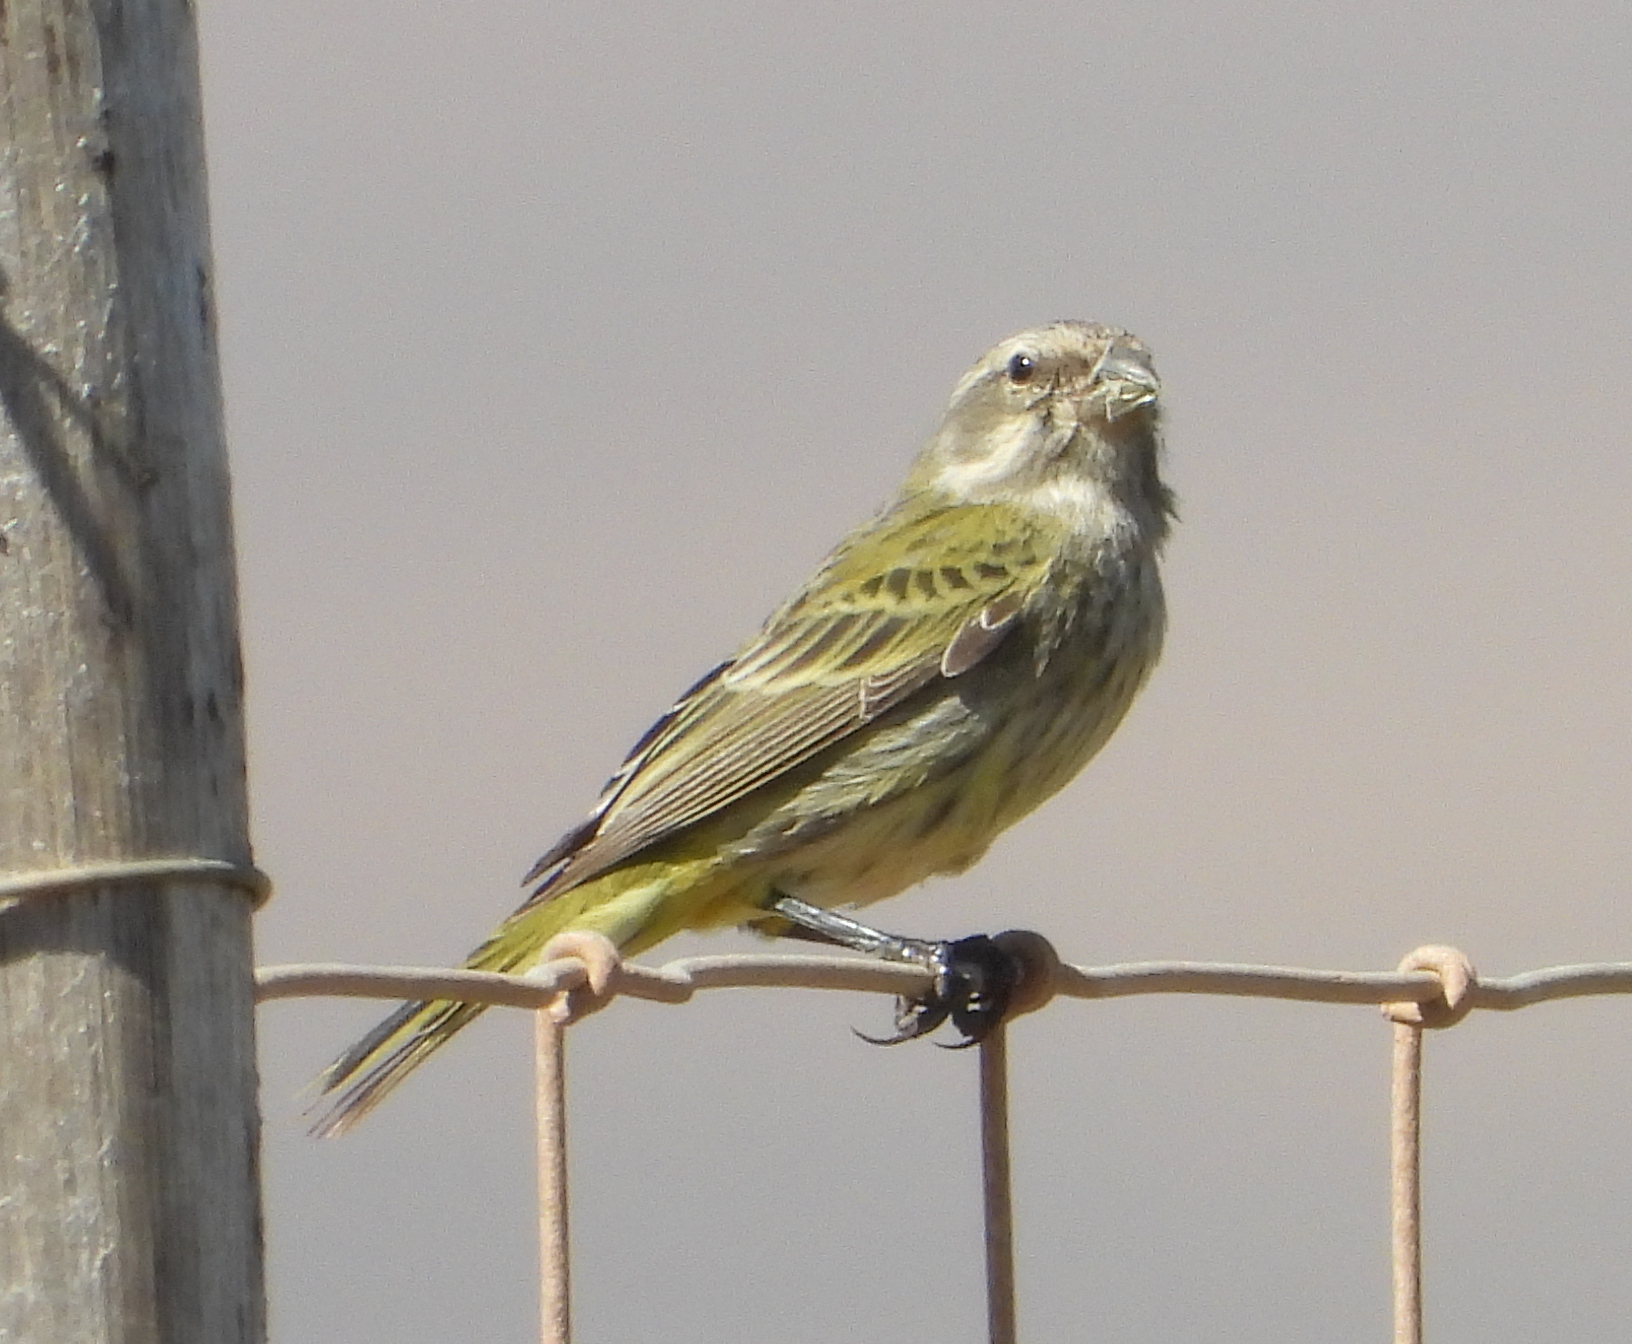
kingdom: Animalia
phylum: Chordata
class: Aves
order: Passeriformes
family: Fringillidae
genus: Crithagra
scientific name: Crithagra flaviventris
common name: Yellow canary
